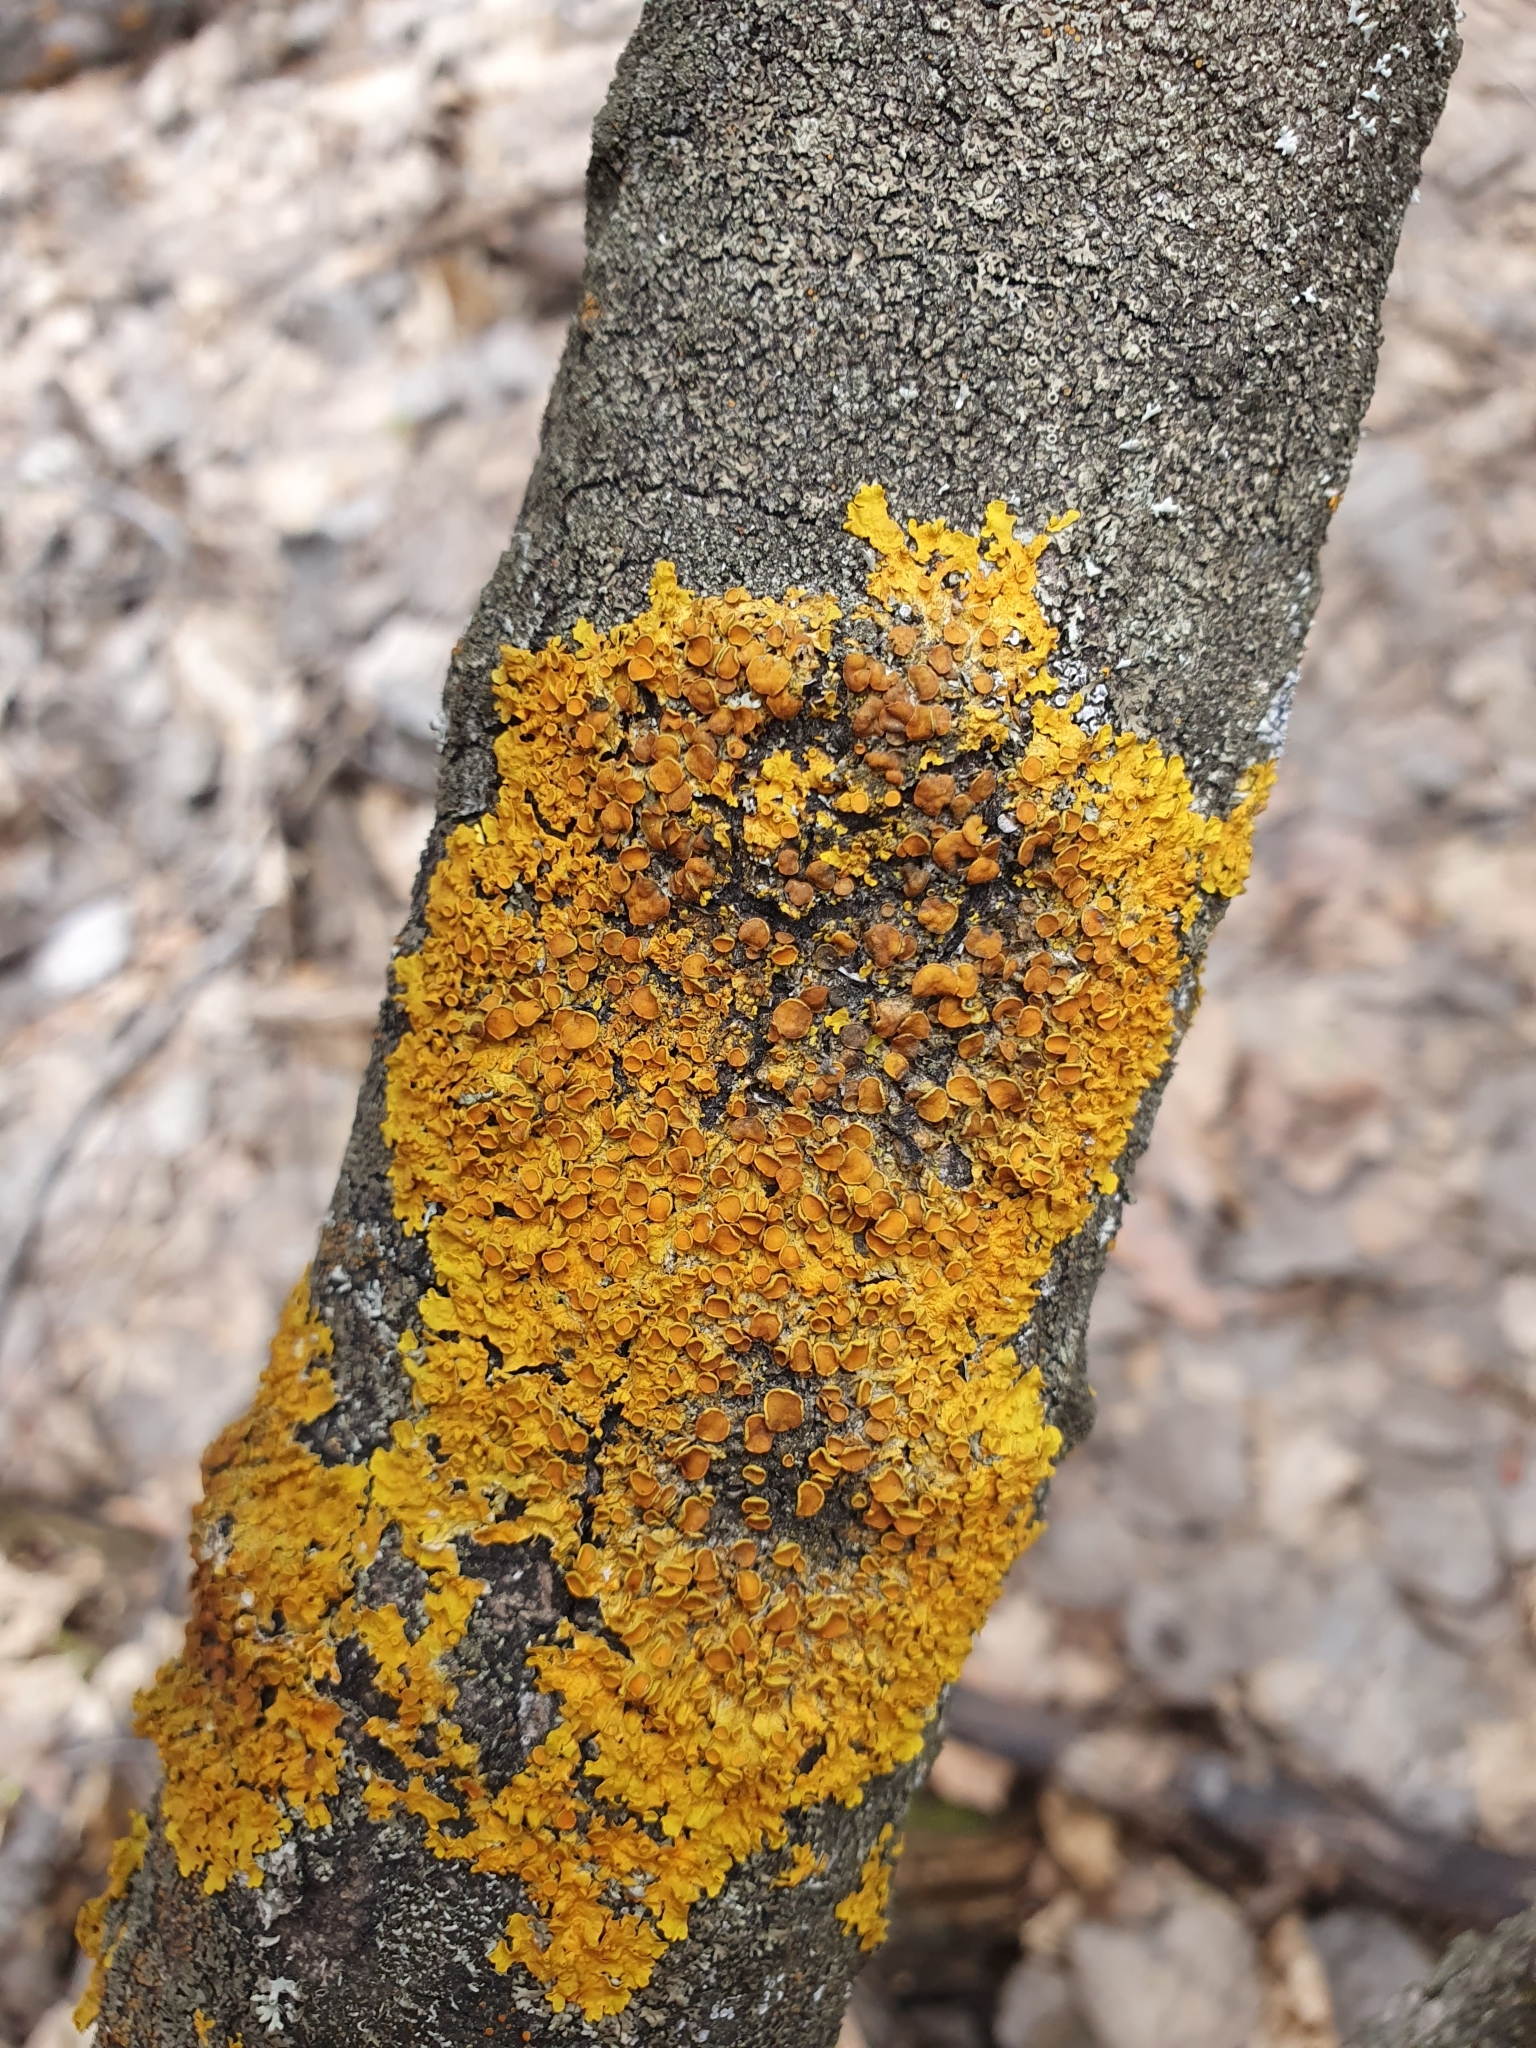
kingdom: Fungi
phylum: Ascomycota
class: Lecanoromycetes
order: Teloschistales
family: Teloschistaceae
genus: Xanthoria
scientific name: Xanthoria parietina
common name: Common orange lichen
